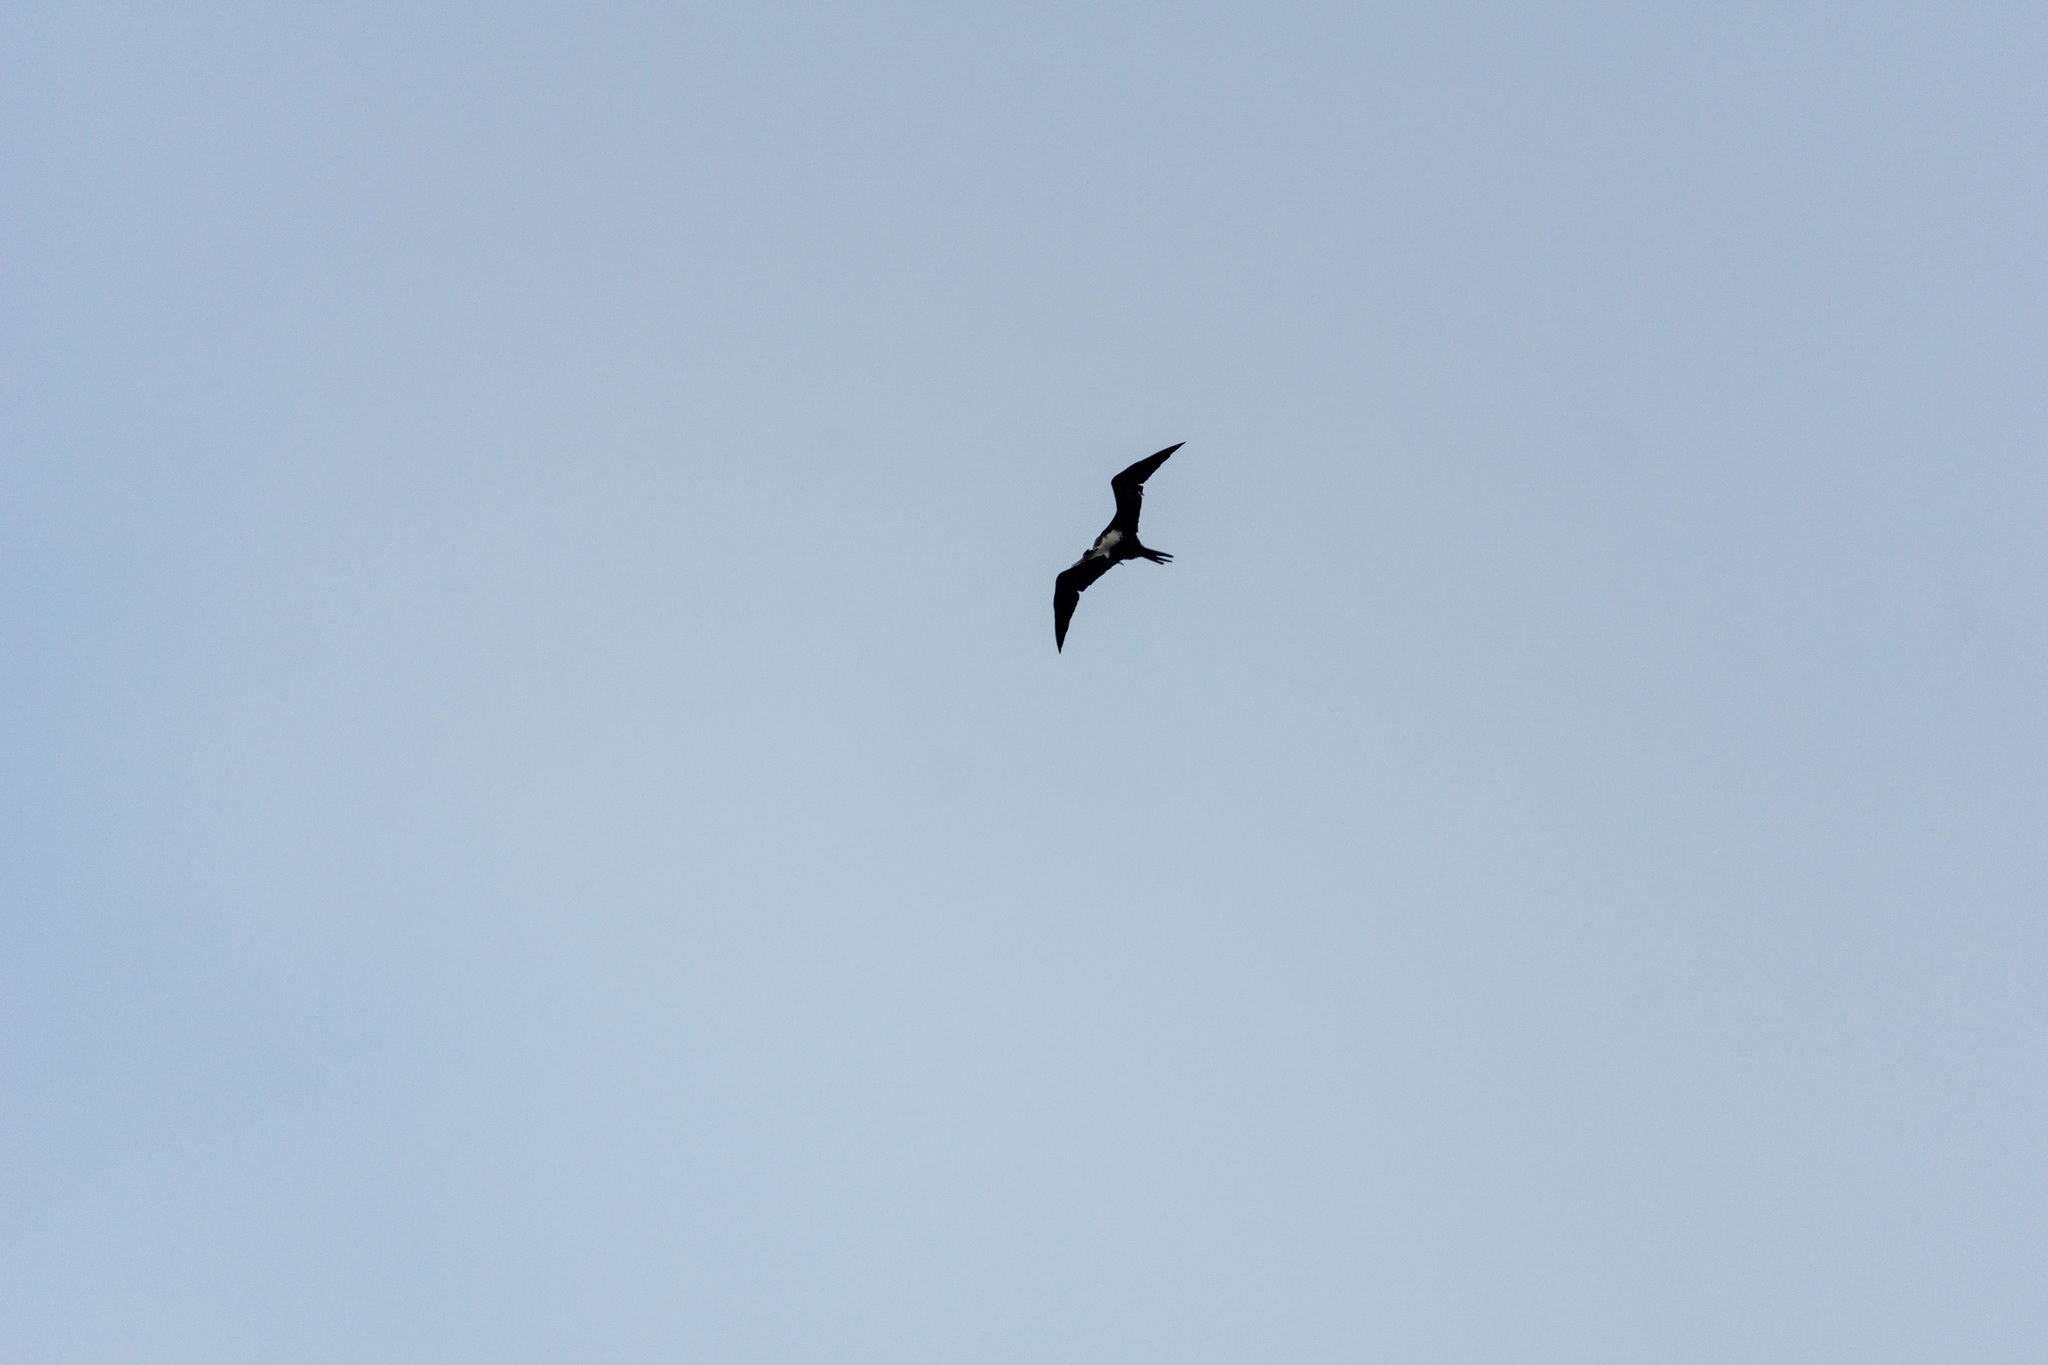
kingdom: Animalia
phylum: Chordata
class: Aves
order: Suliformes
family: Fregatidae
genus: Fregata
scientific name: Fregata minor
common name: Great frigatebird
